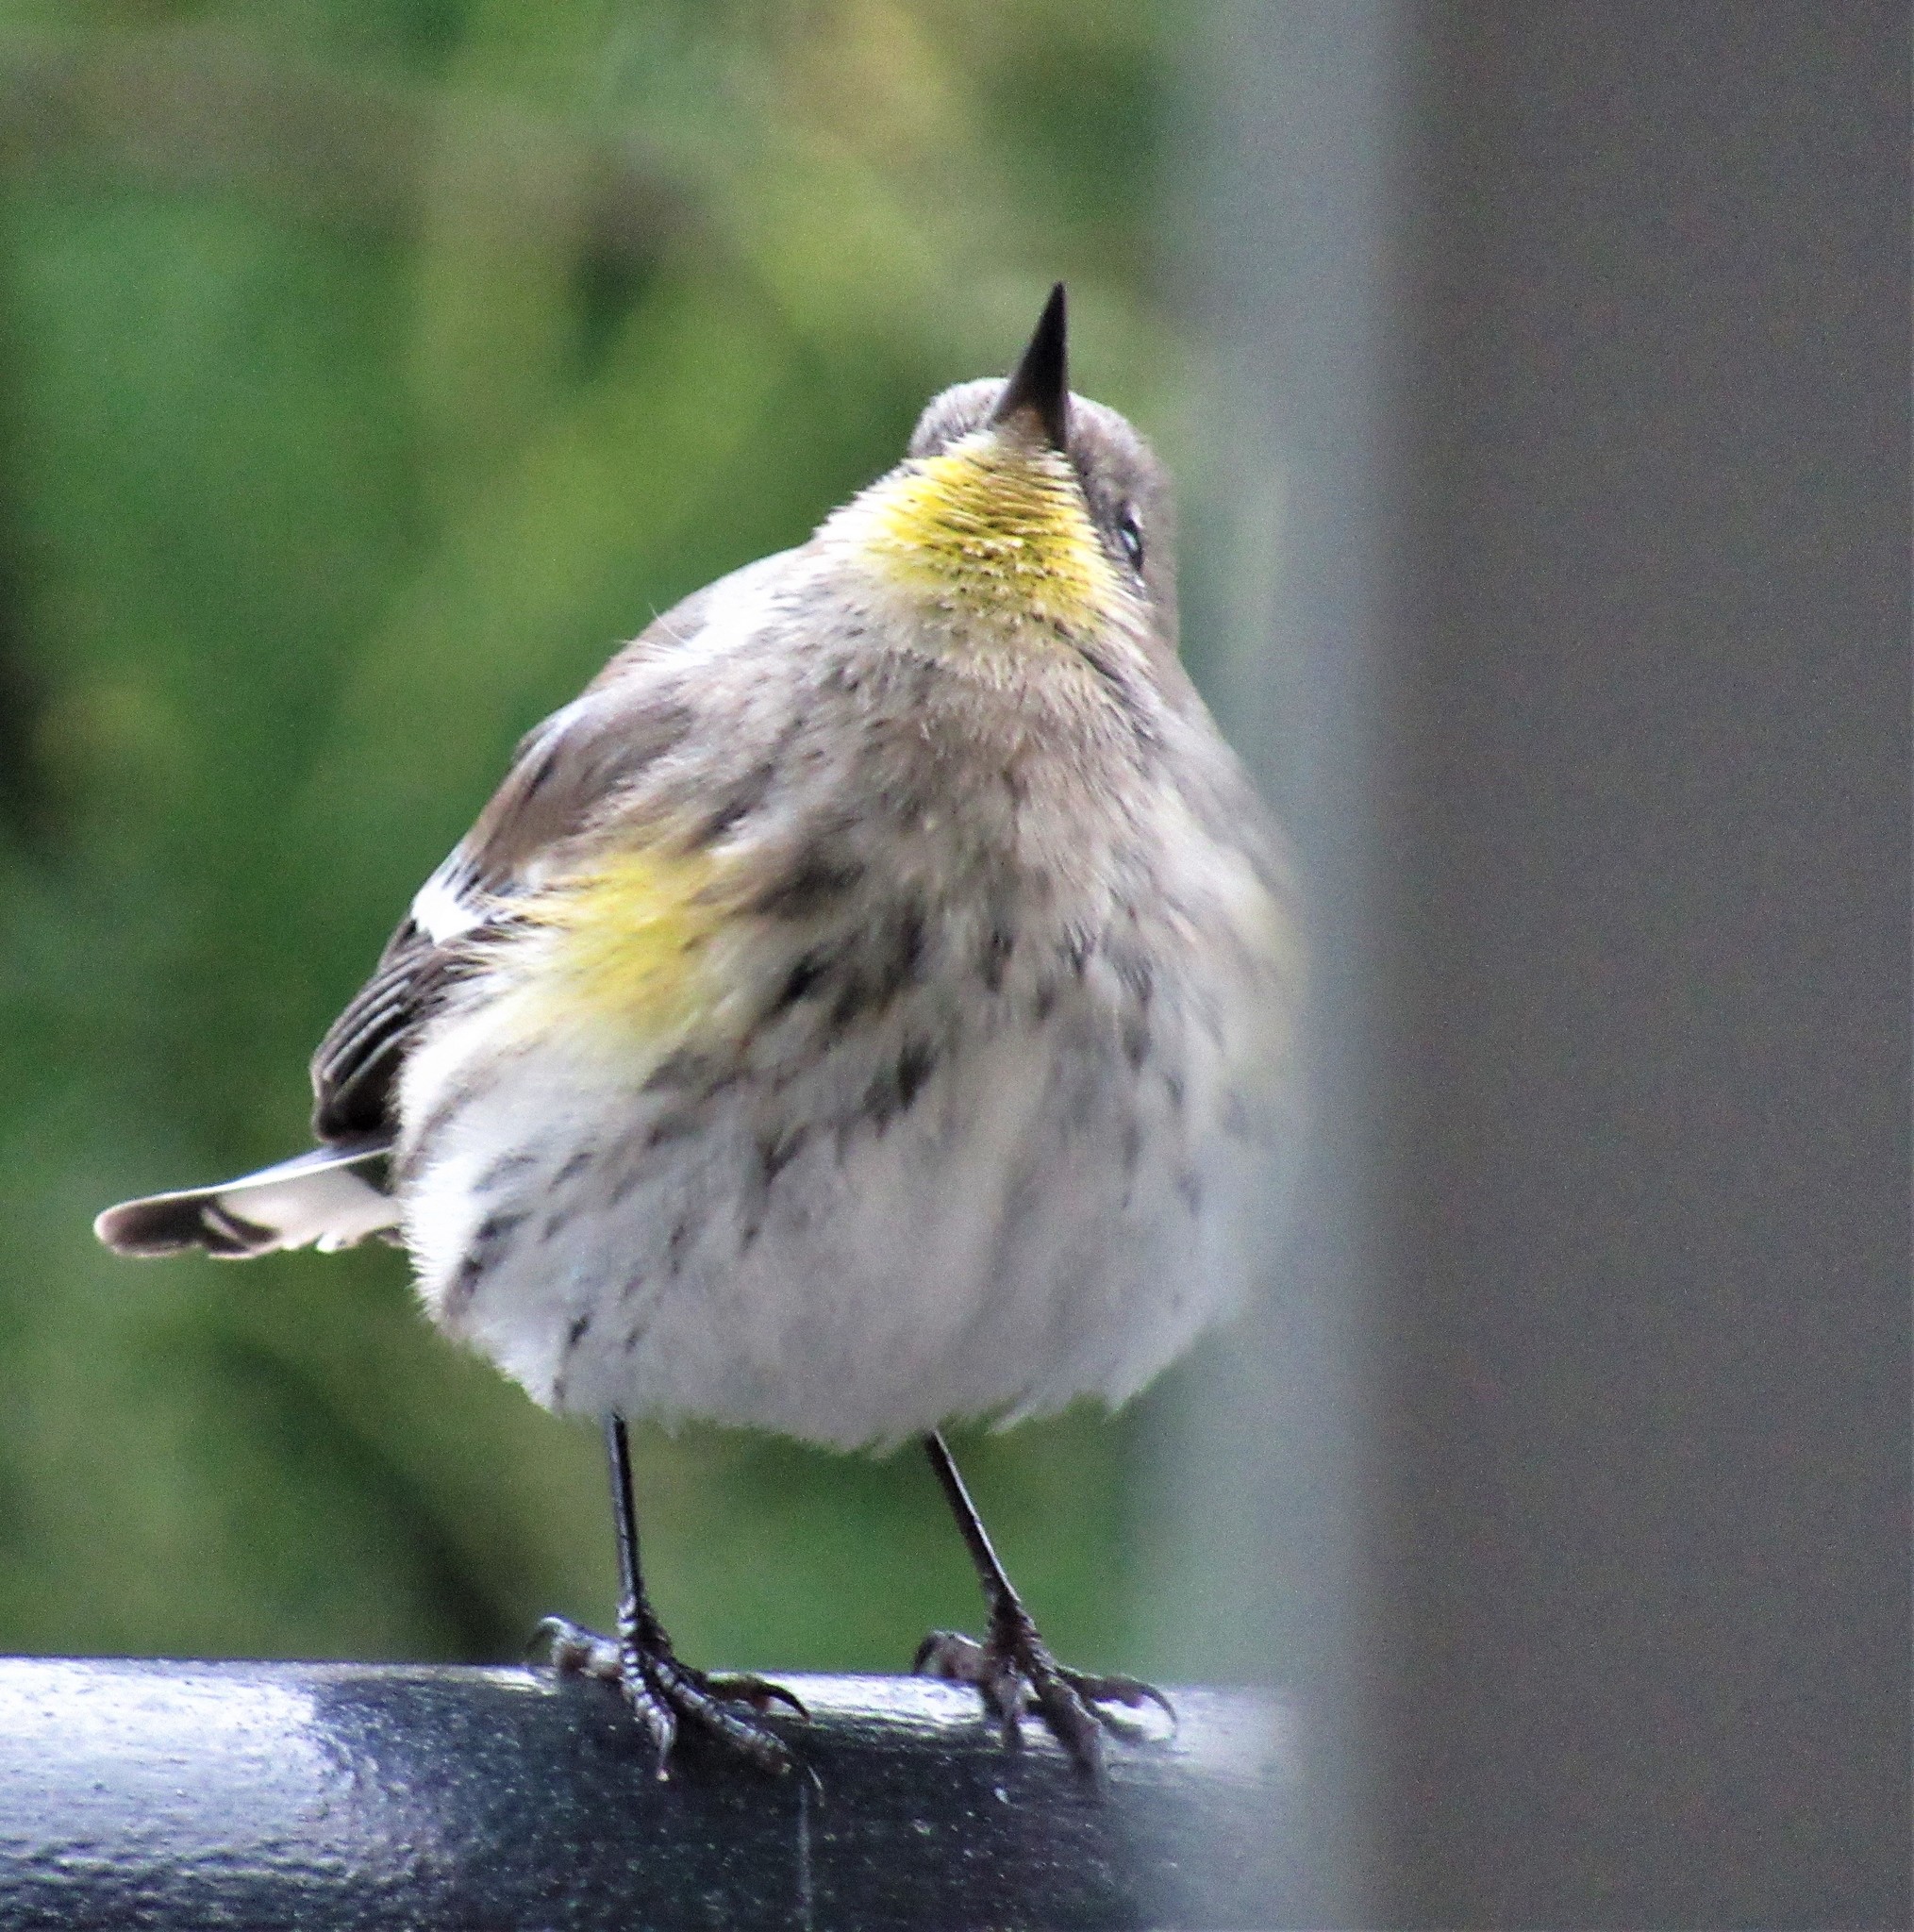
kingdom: Animalia
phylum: Chordata
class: Aves
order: Passeriformes
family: Parulidae
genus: Setophaga
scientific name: Setophaga auduboni
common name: Audubon's warbler
